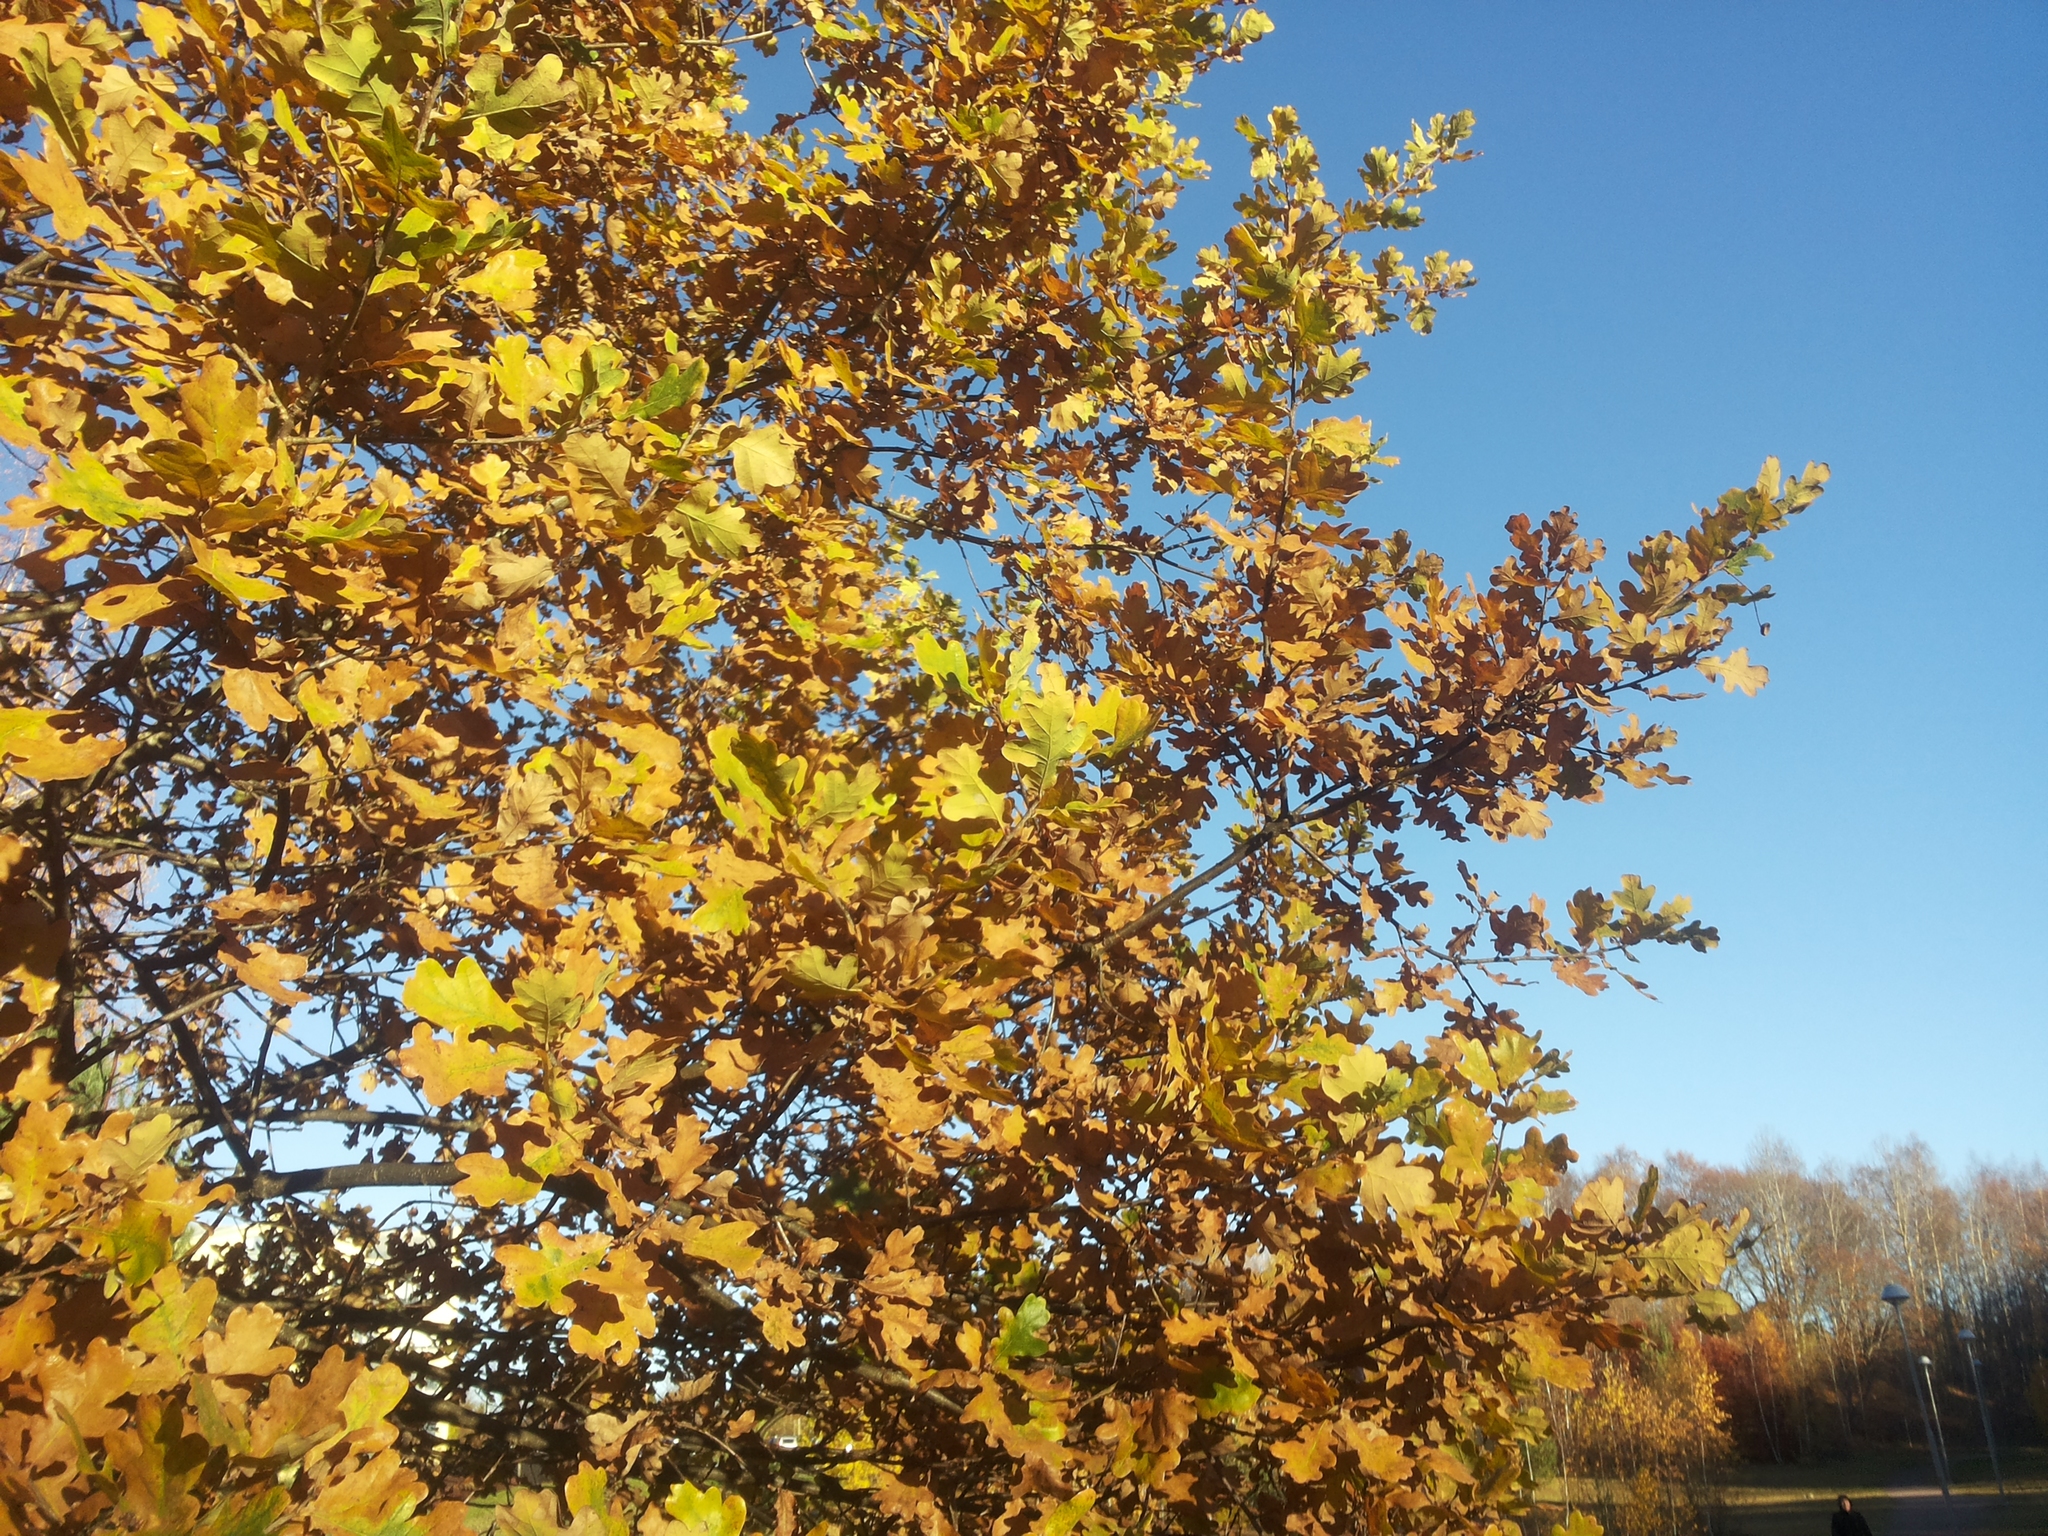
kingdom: Plantae
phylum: Tracheophyta
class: Magnoliopsida
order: Fagales
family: Fagaceae
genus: Quercus
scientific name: Quercus robur
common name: Pedunculate oak
